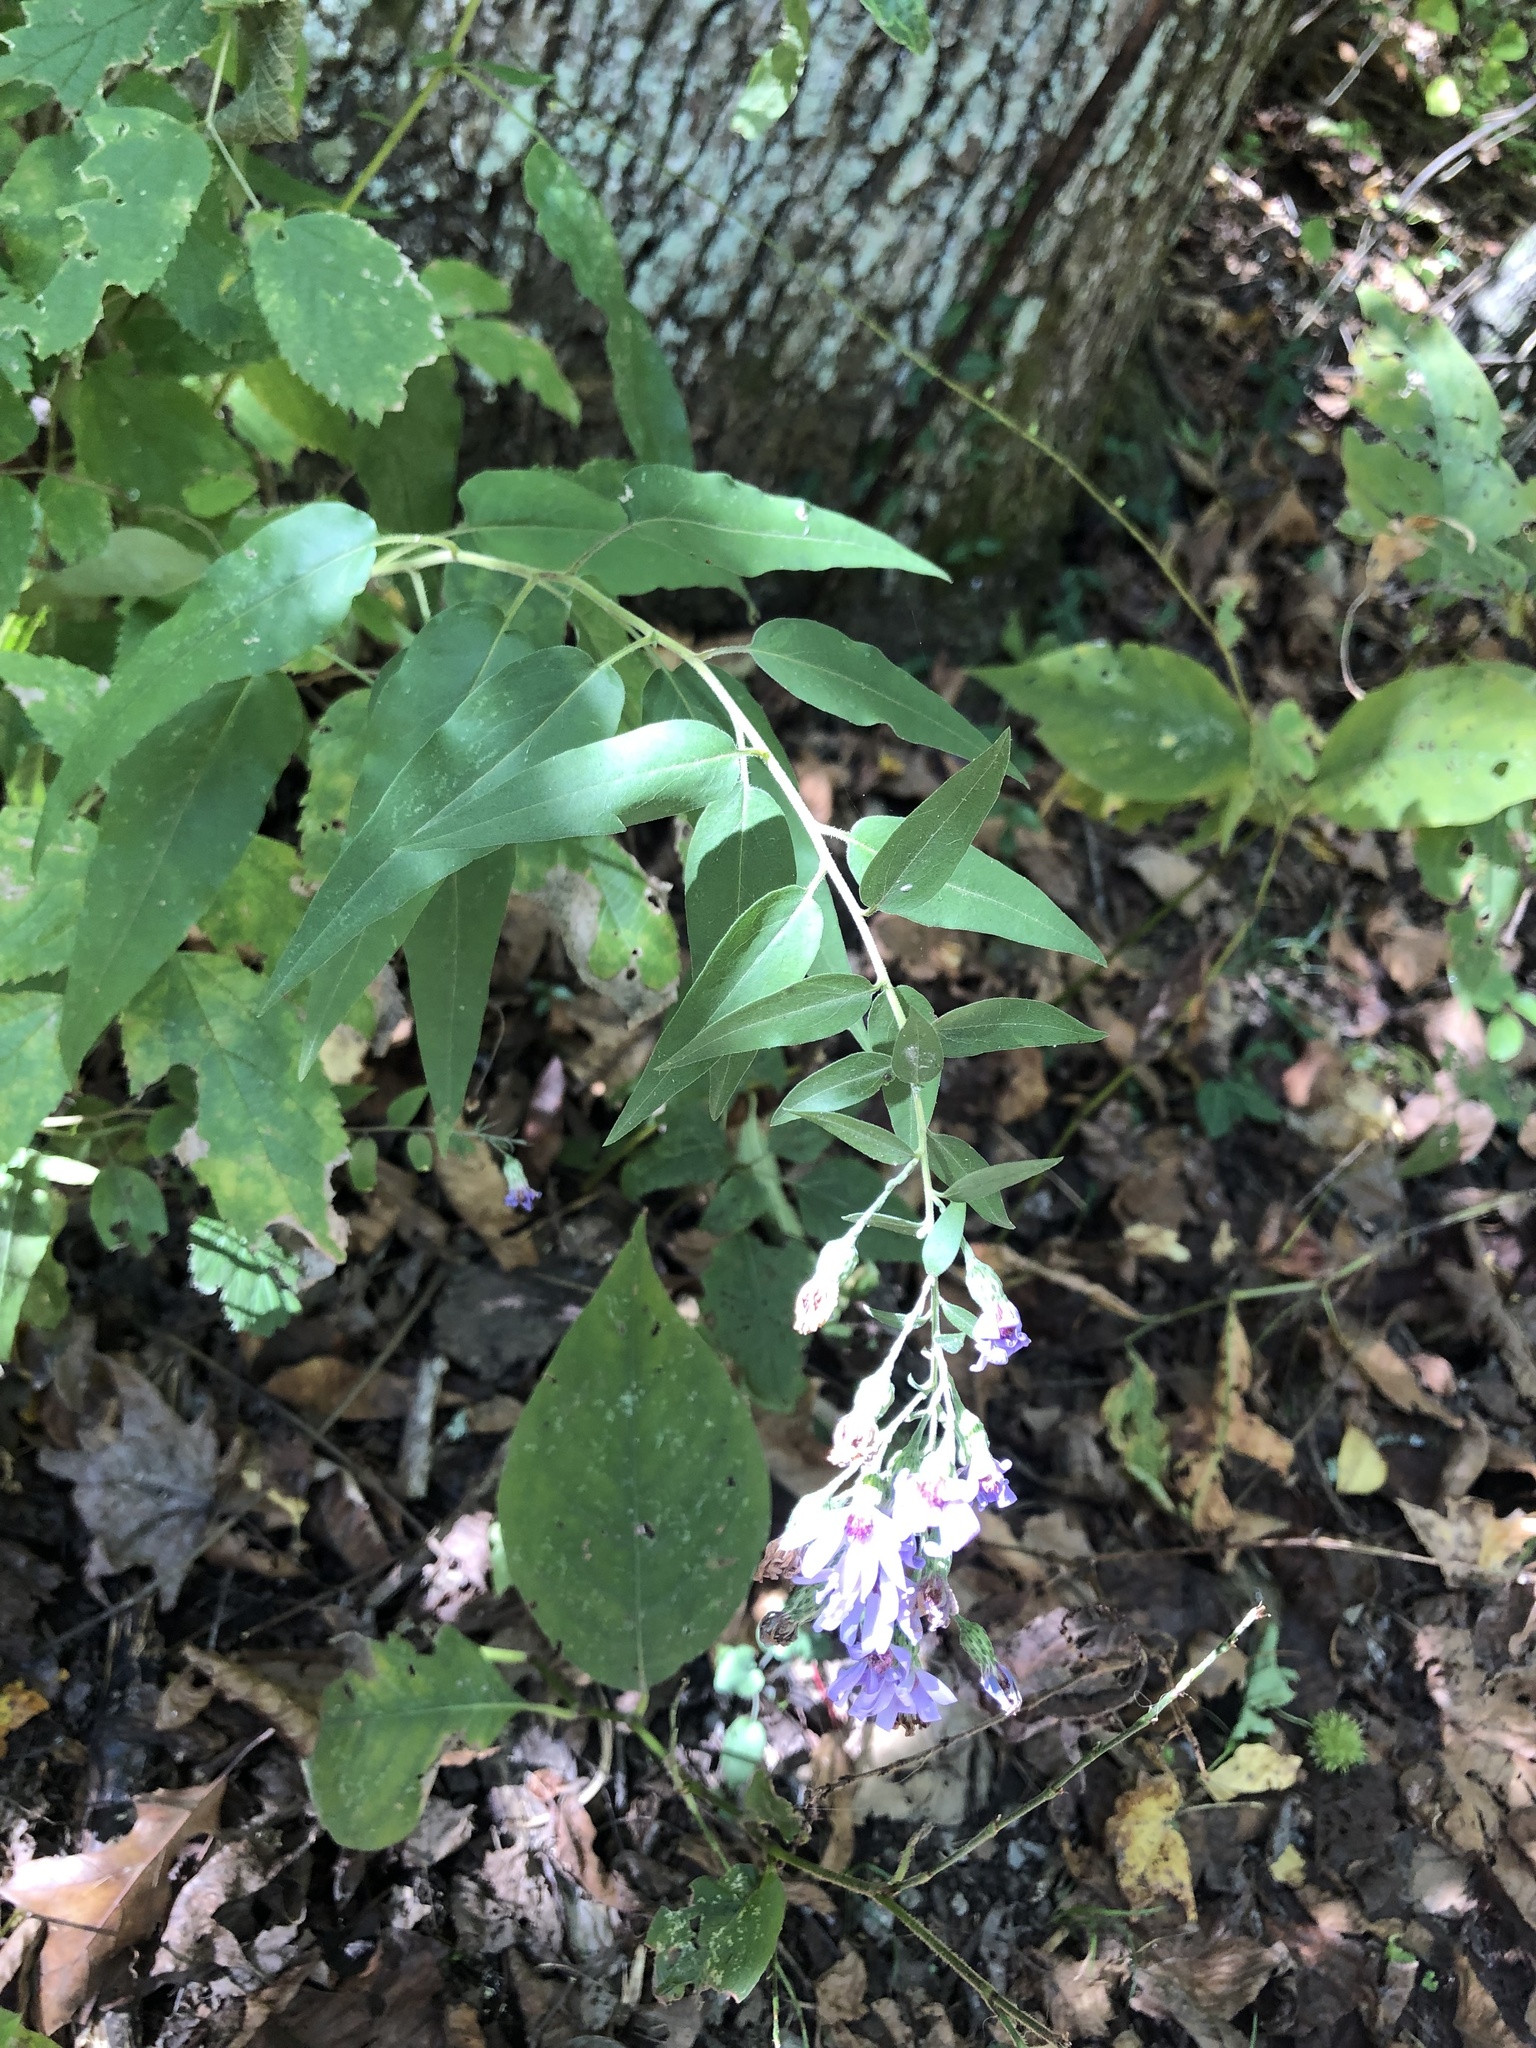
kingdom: Plantae
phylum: Tracheophyta
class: Magnoliopsida
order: Asterales
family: Asteraceae
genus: Symphyotrichum
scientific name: Symphyotrichum shortii
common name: Short's aster
